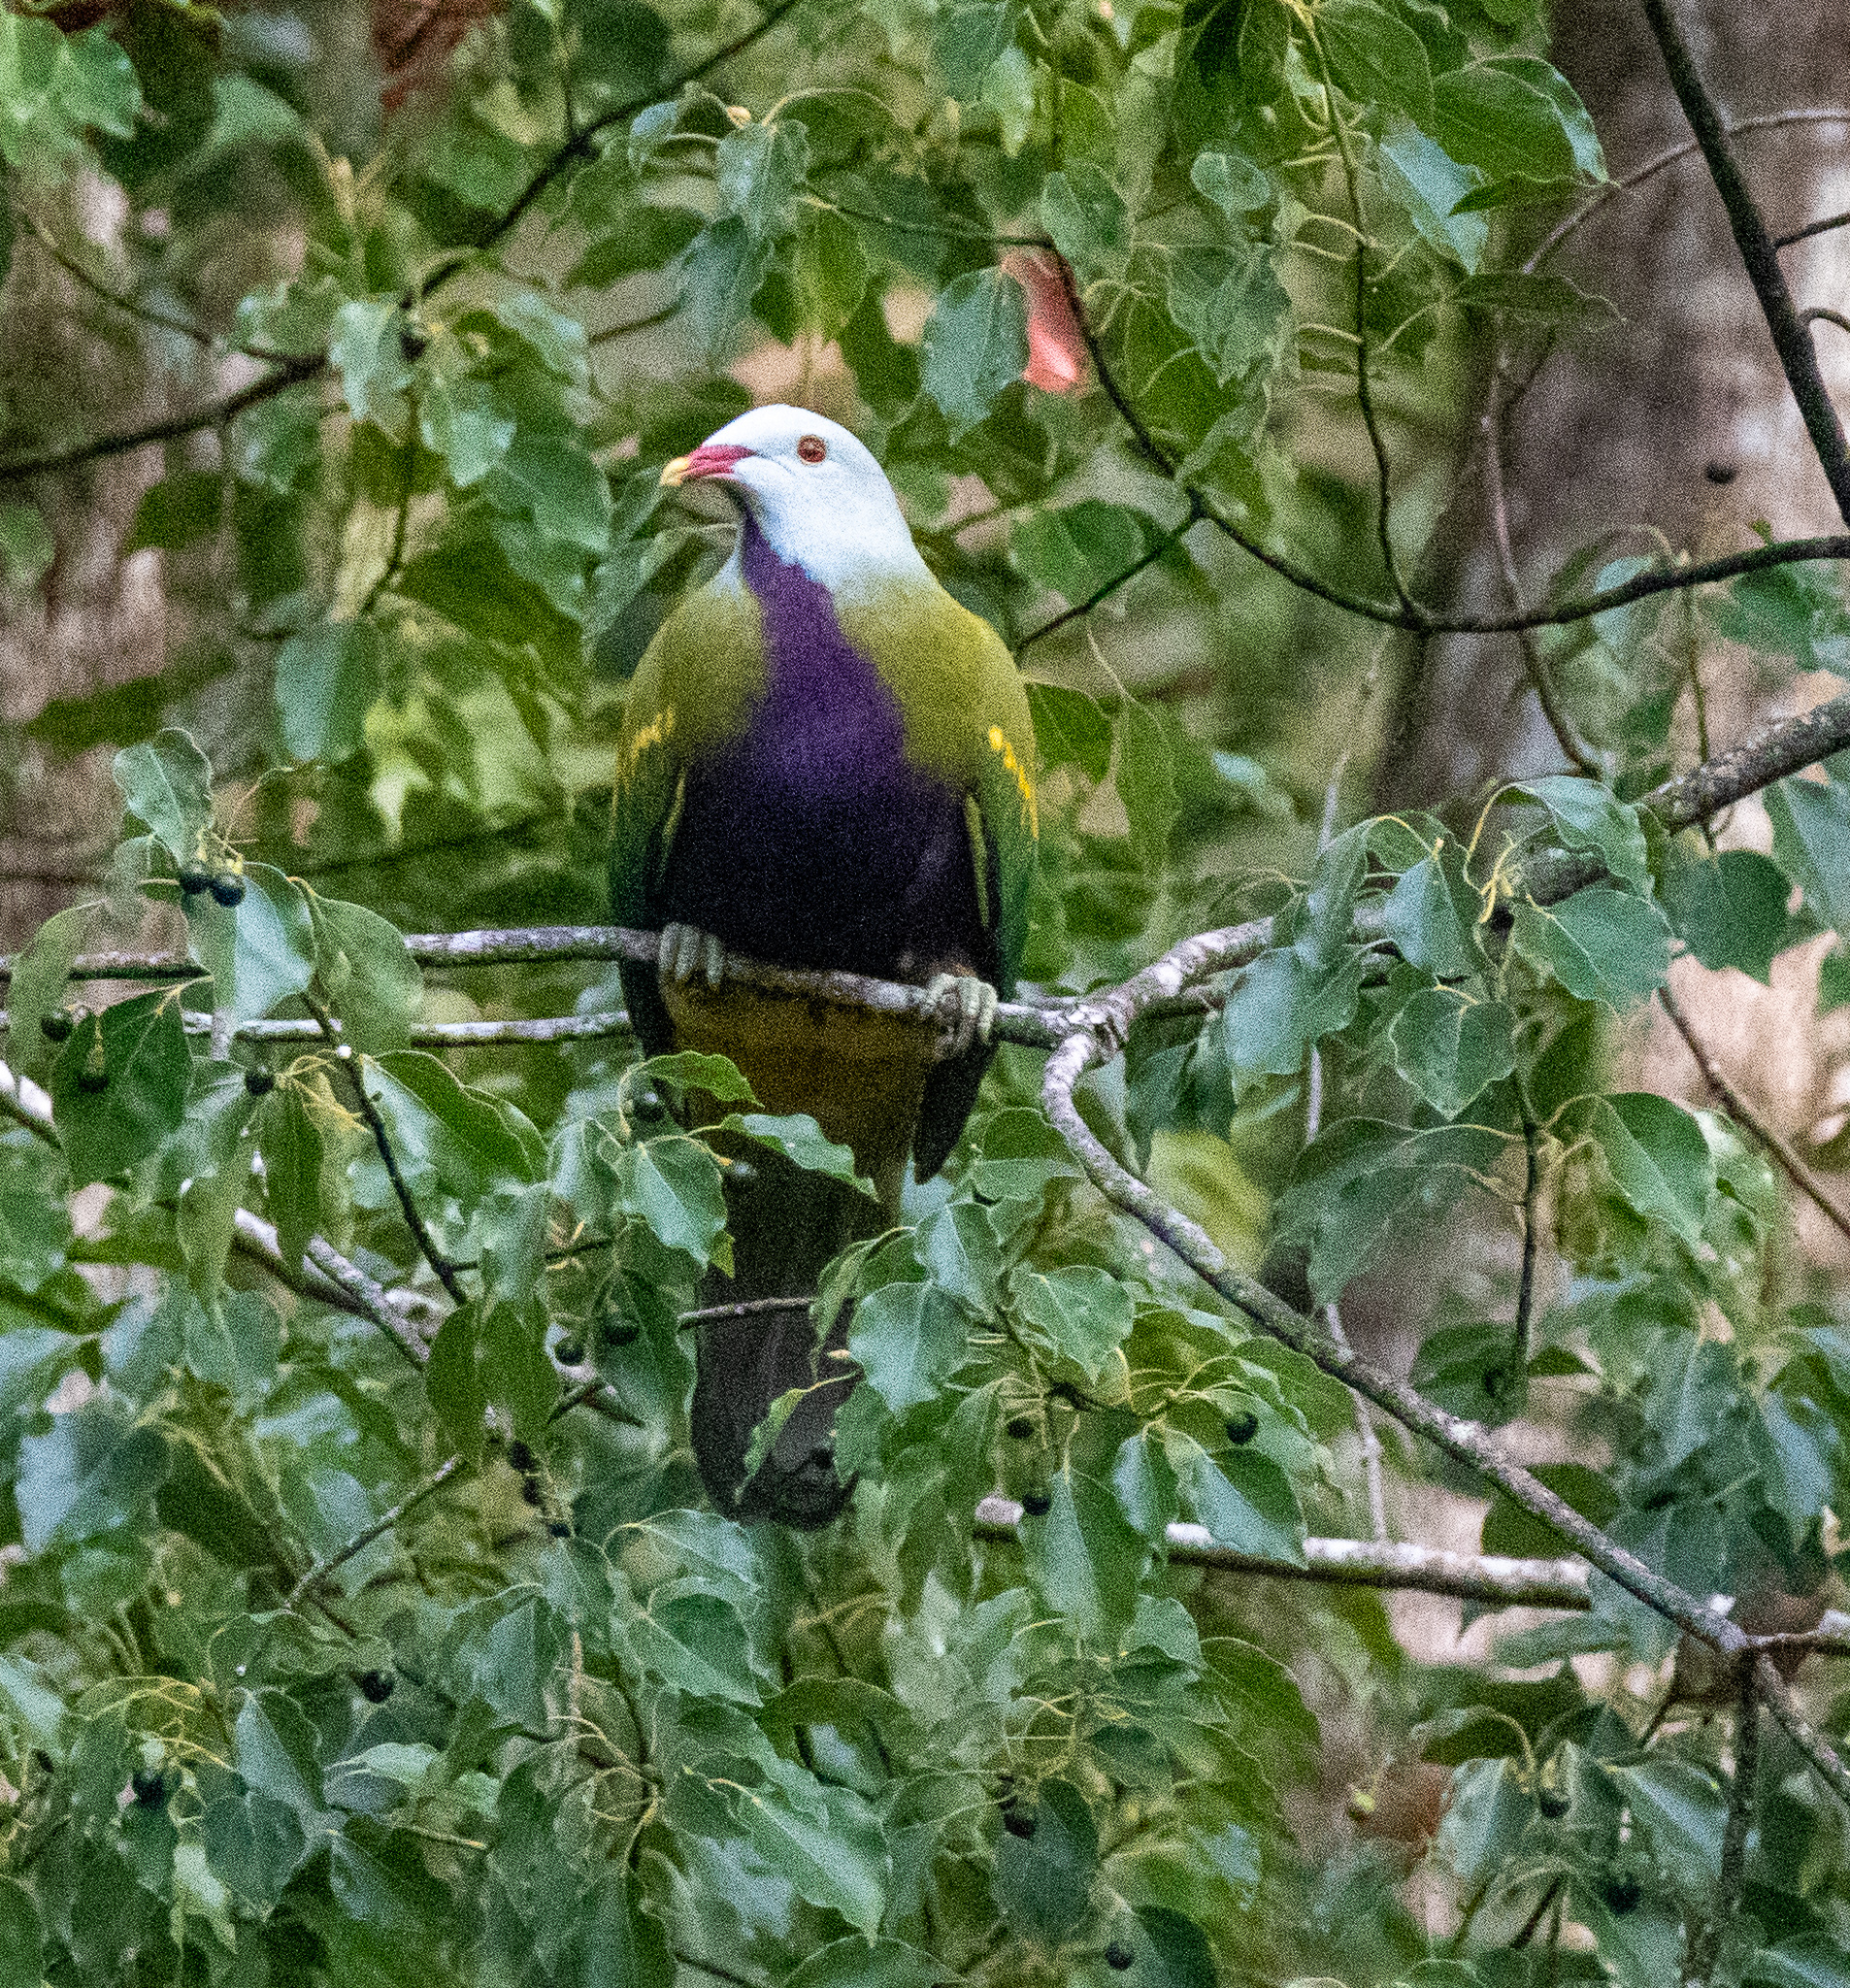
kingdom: Animalia
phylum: Chordata
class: Aves
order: Columbiformes
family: Columbidae
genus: Ptilinopus
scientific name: Ptilinopus magnificus
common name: Wompoo fruit dove
